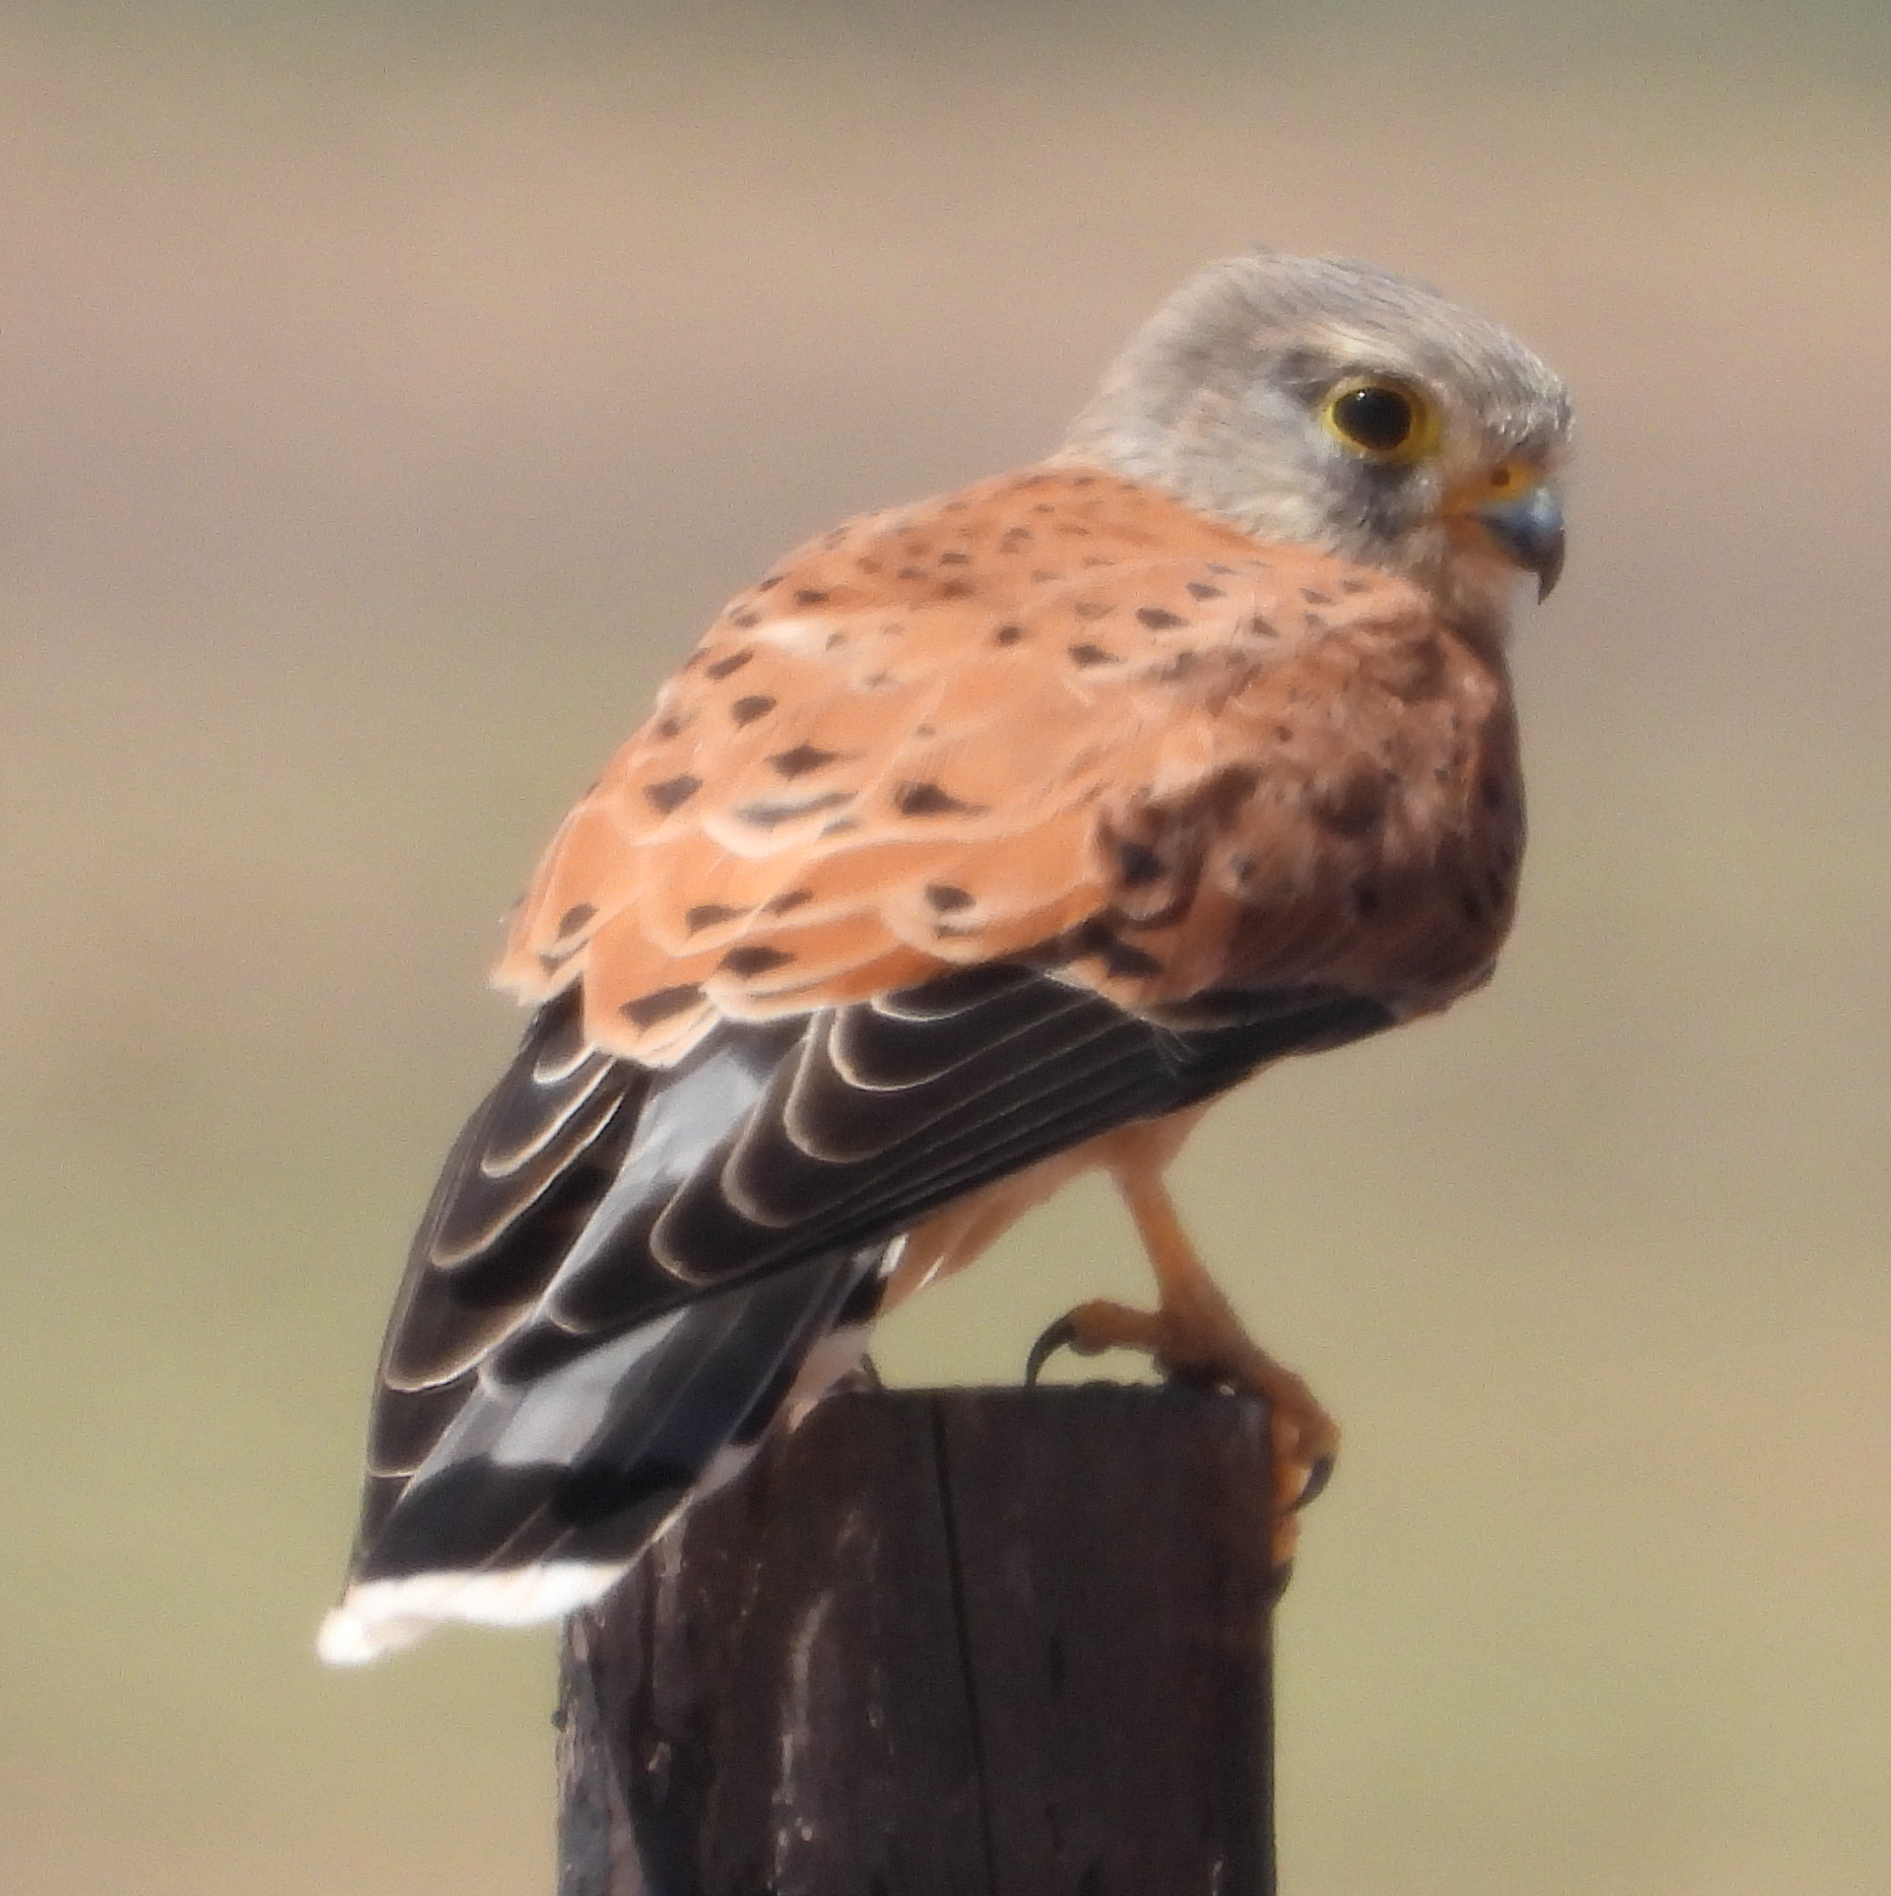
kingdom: Animalia
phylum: Chordata
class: Aves
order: Falconiformes
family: Falconidae
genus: Falco
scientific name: Falco rupicolus
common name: Rock kestrel
